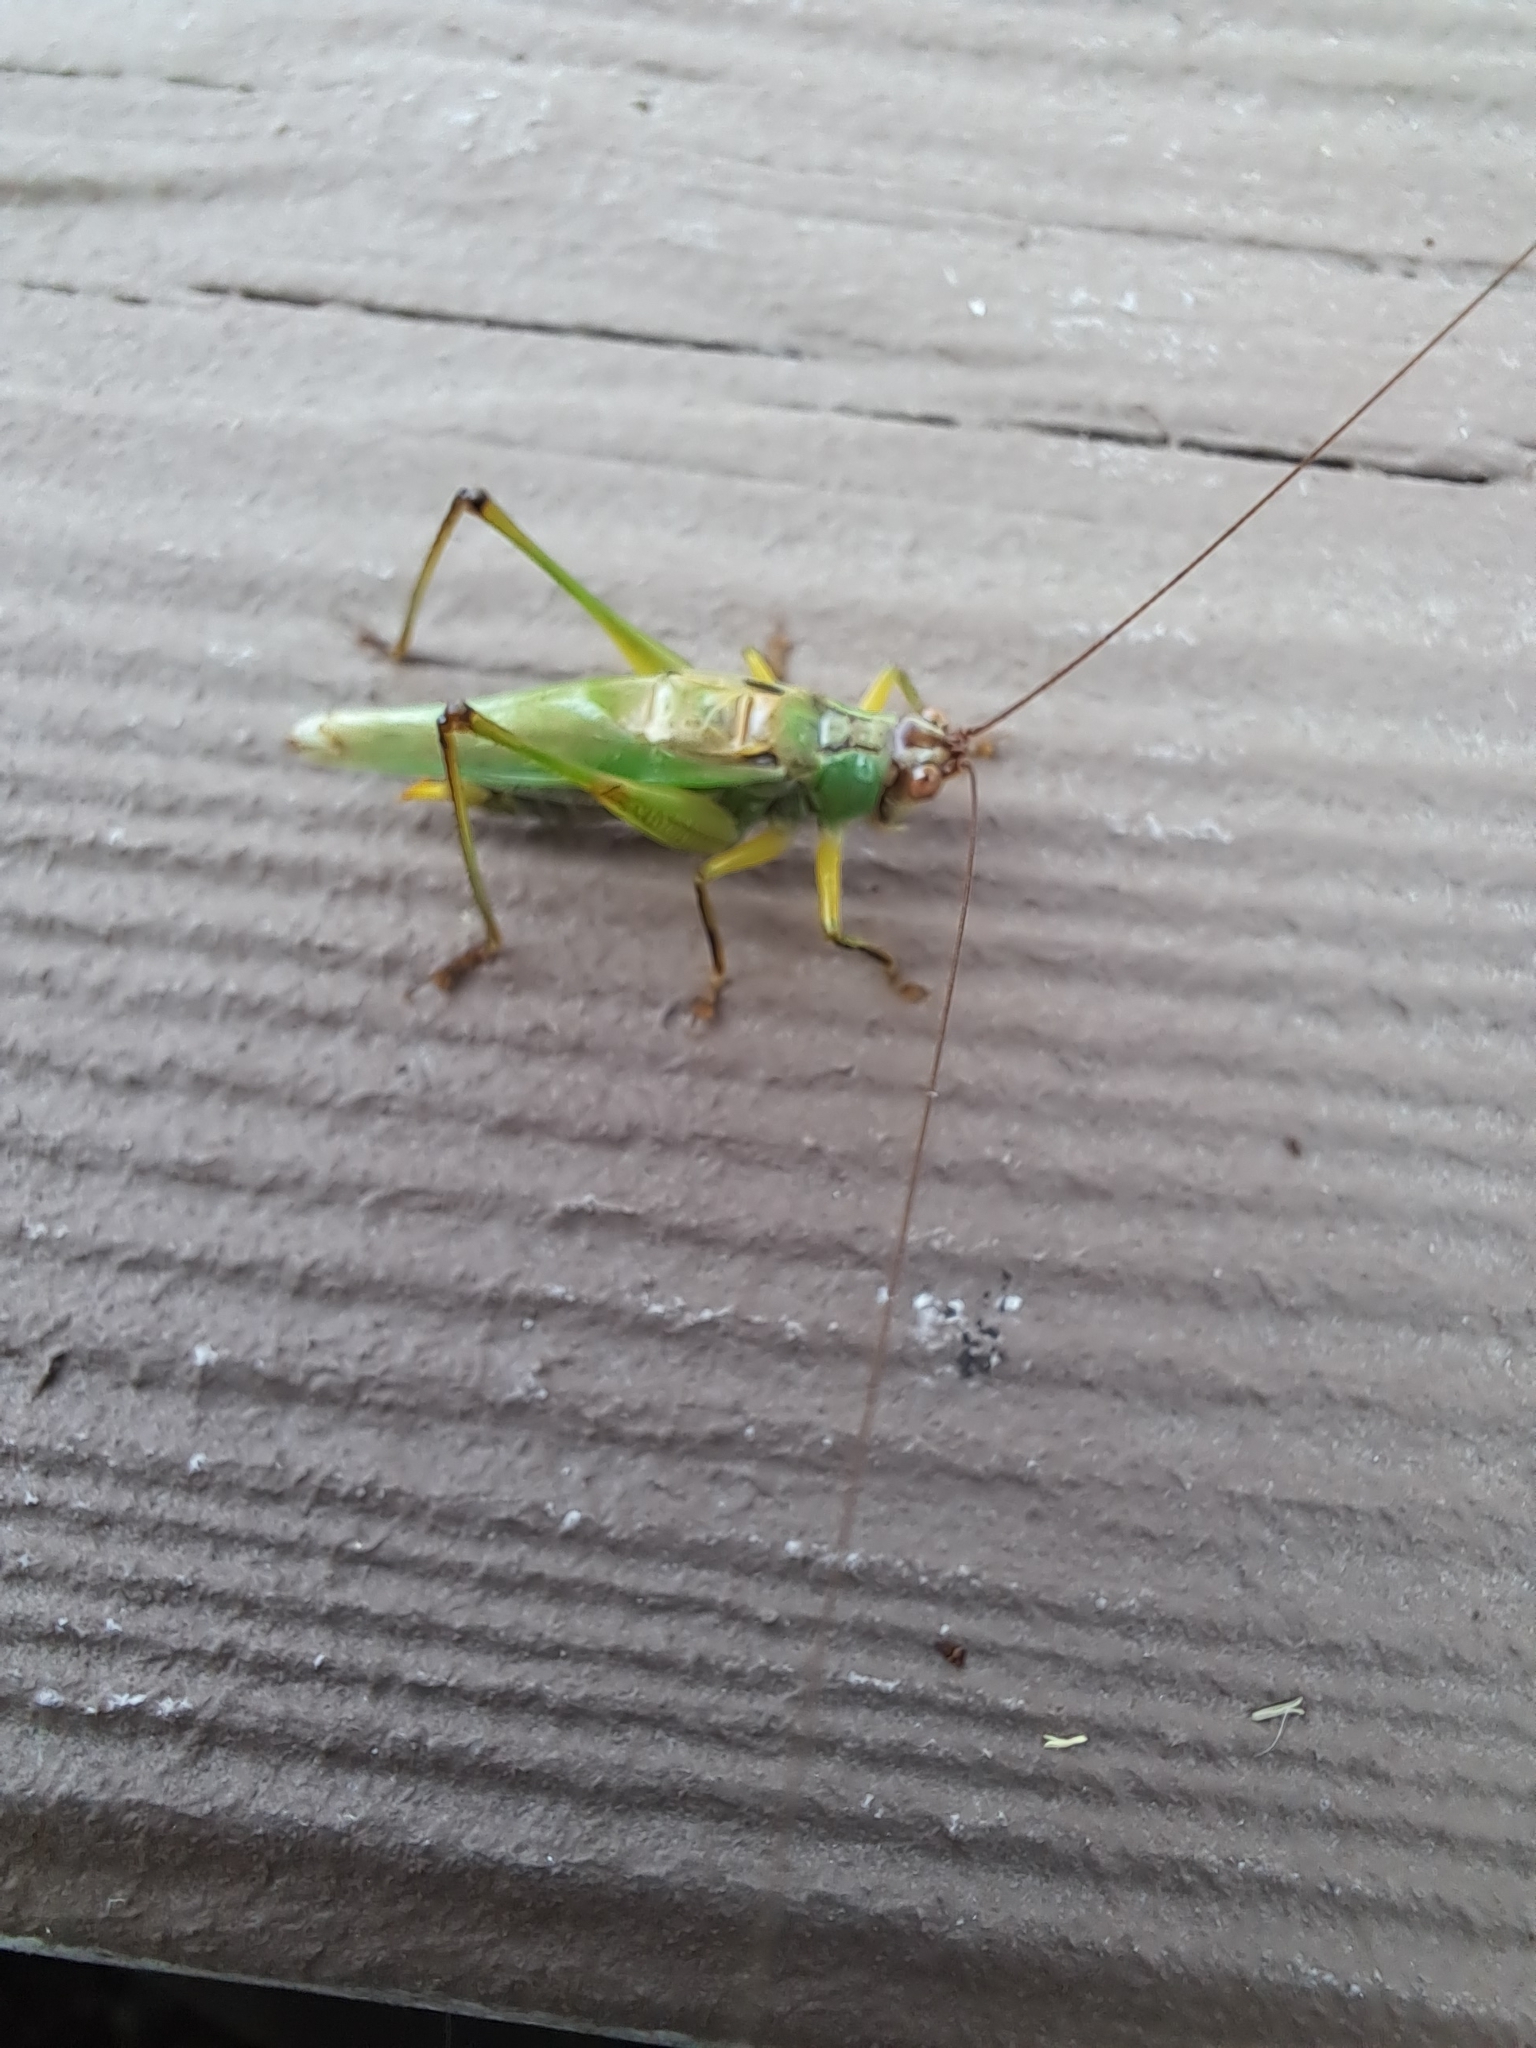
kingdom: Animalia
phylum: Arthropoda
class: Insecta
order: Orthoptera
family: Tettigoniidae
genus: Orchelimum
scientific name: Orchelimum nigripes
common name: Black-legged meadow katydid
